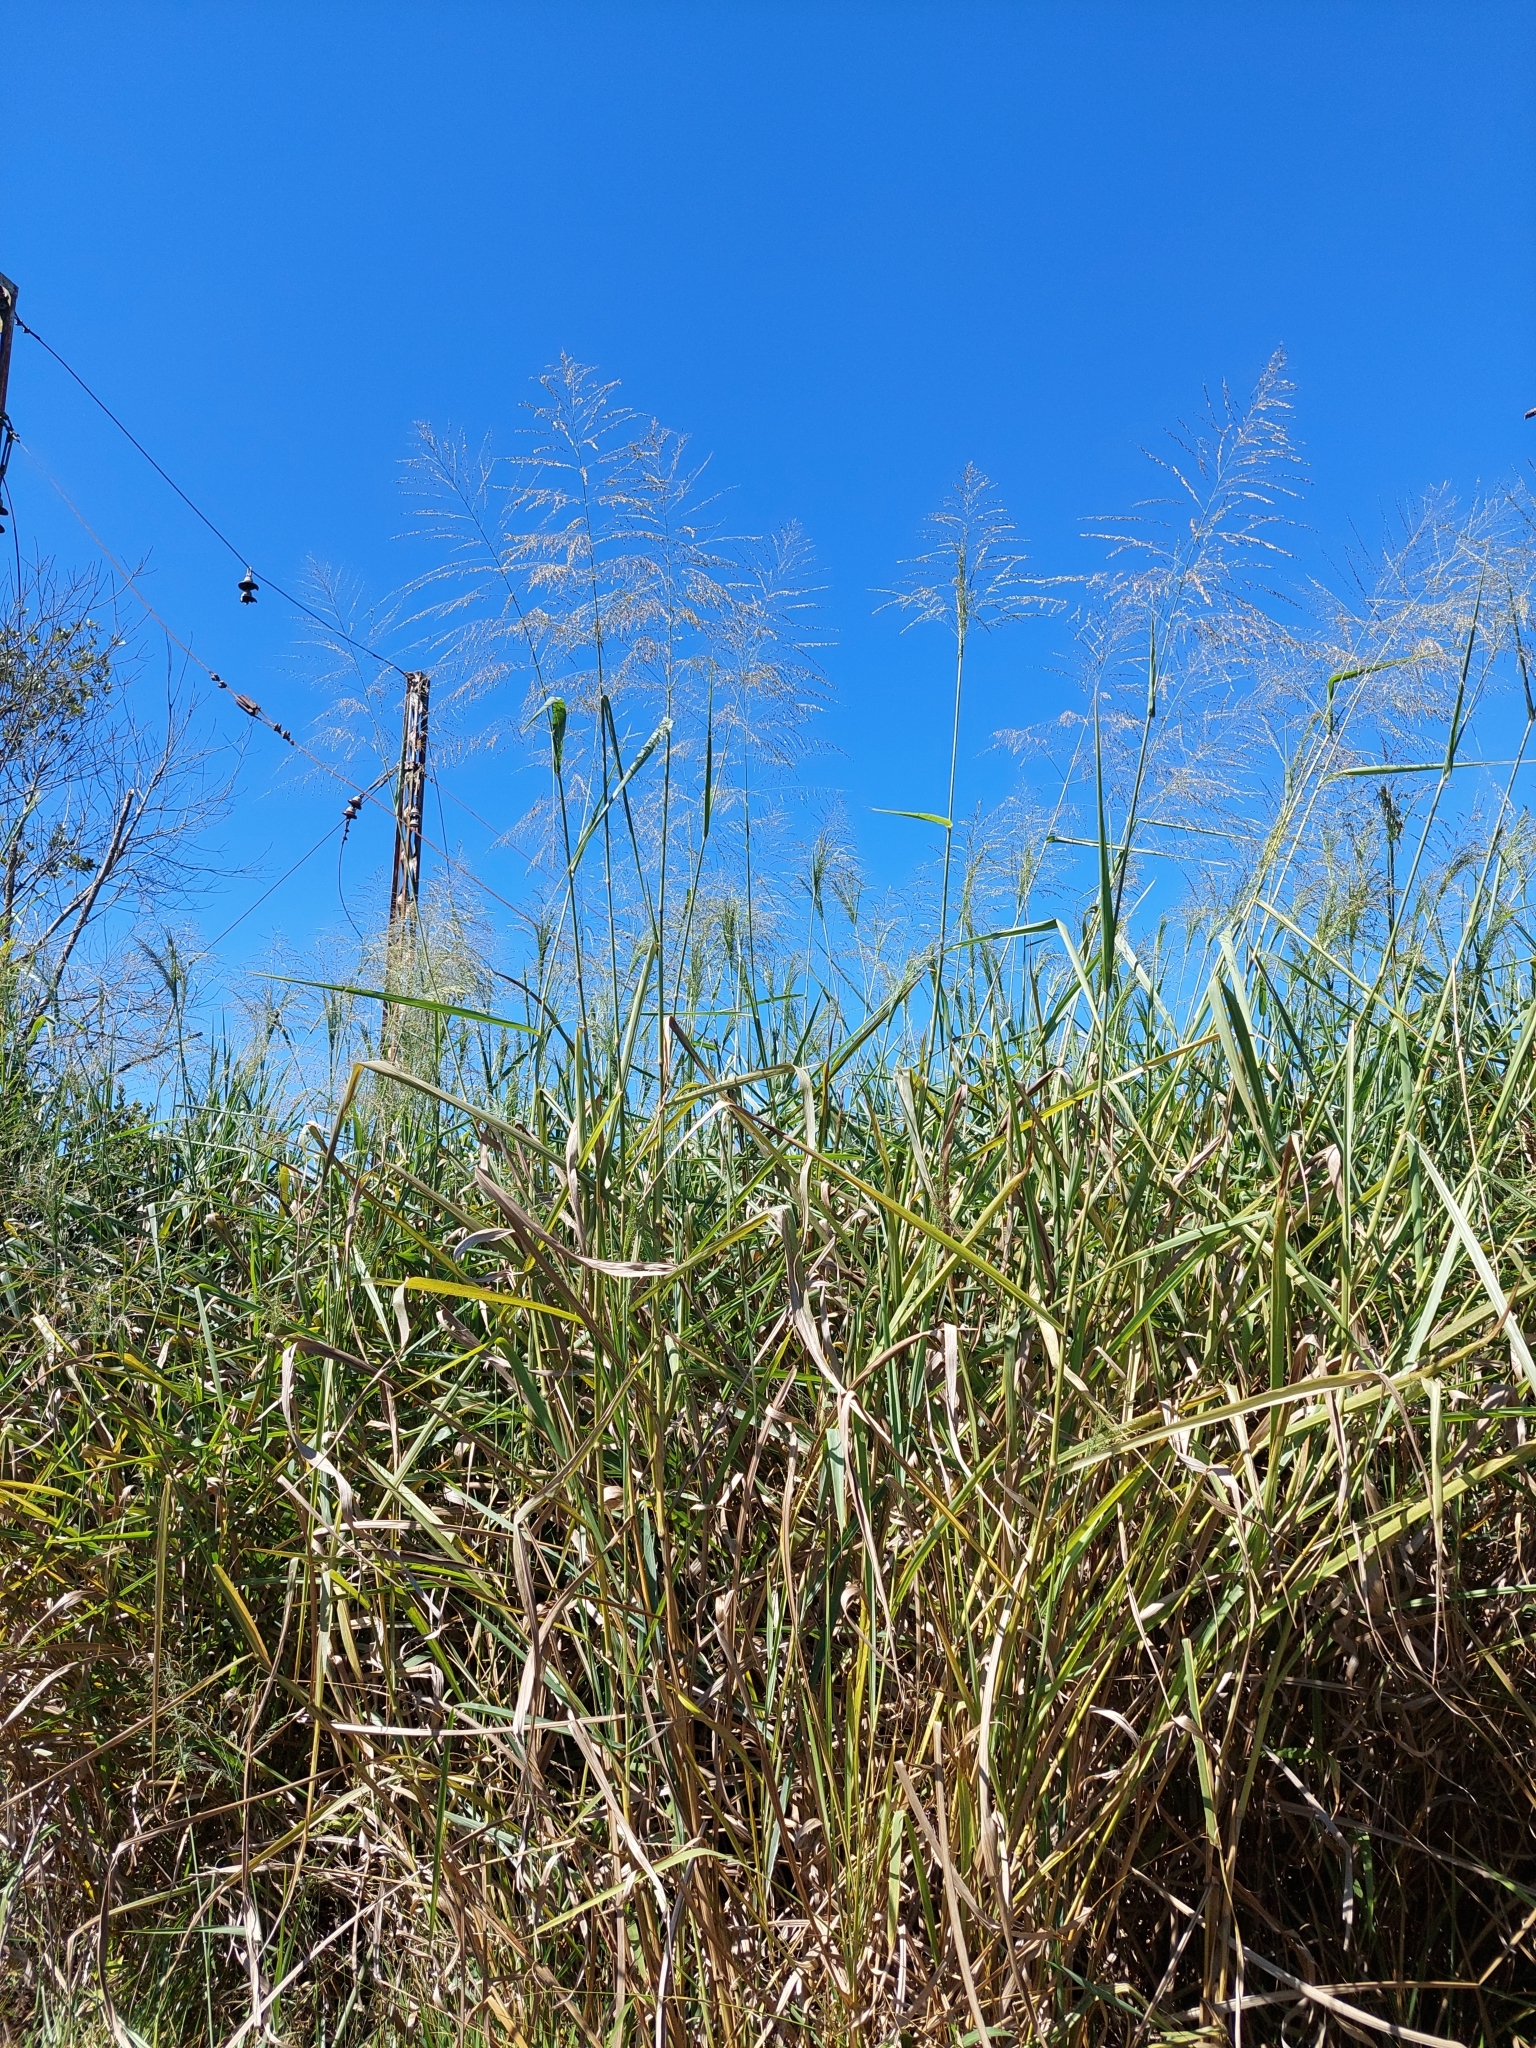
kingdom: Plantae
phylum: Tracheophyta
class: Liliopsida
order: Poales
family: Poaceae
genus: Megathyrsus
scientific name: Megathyrsus maximus
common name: Guineagrass
